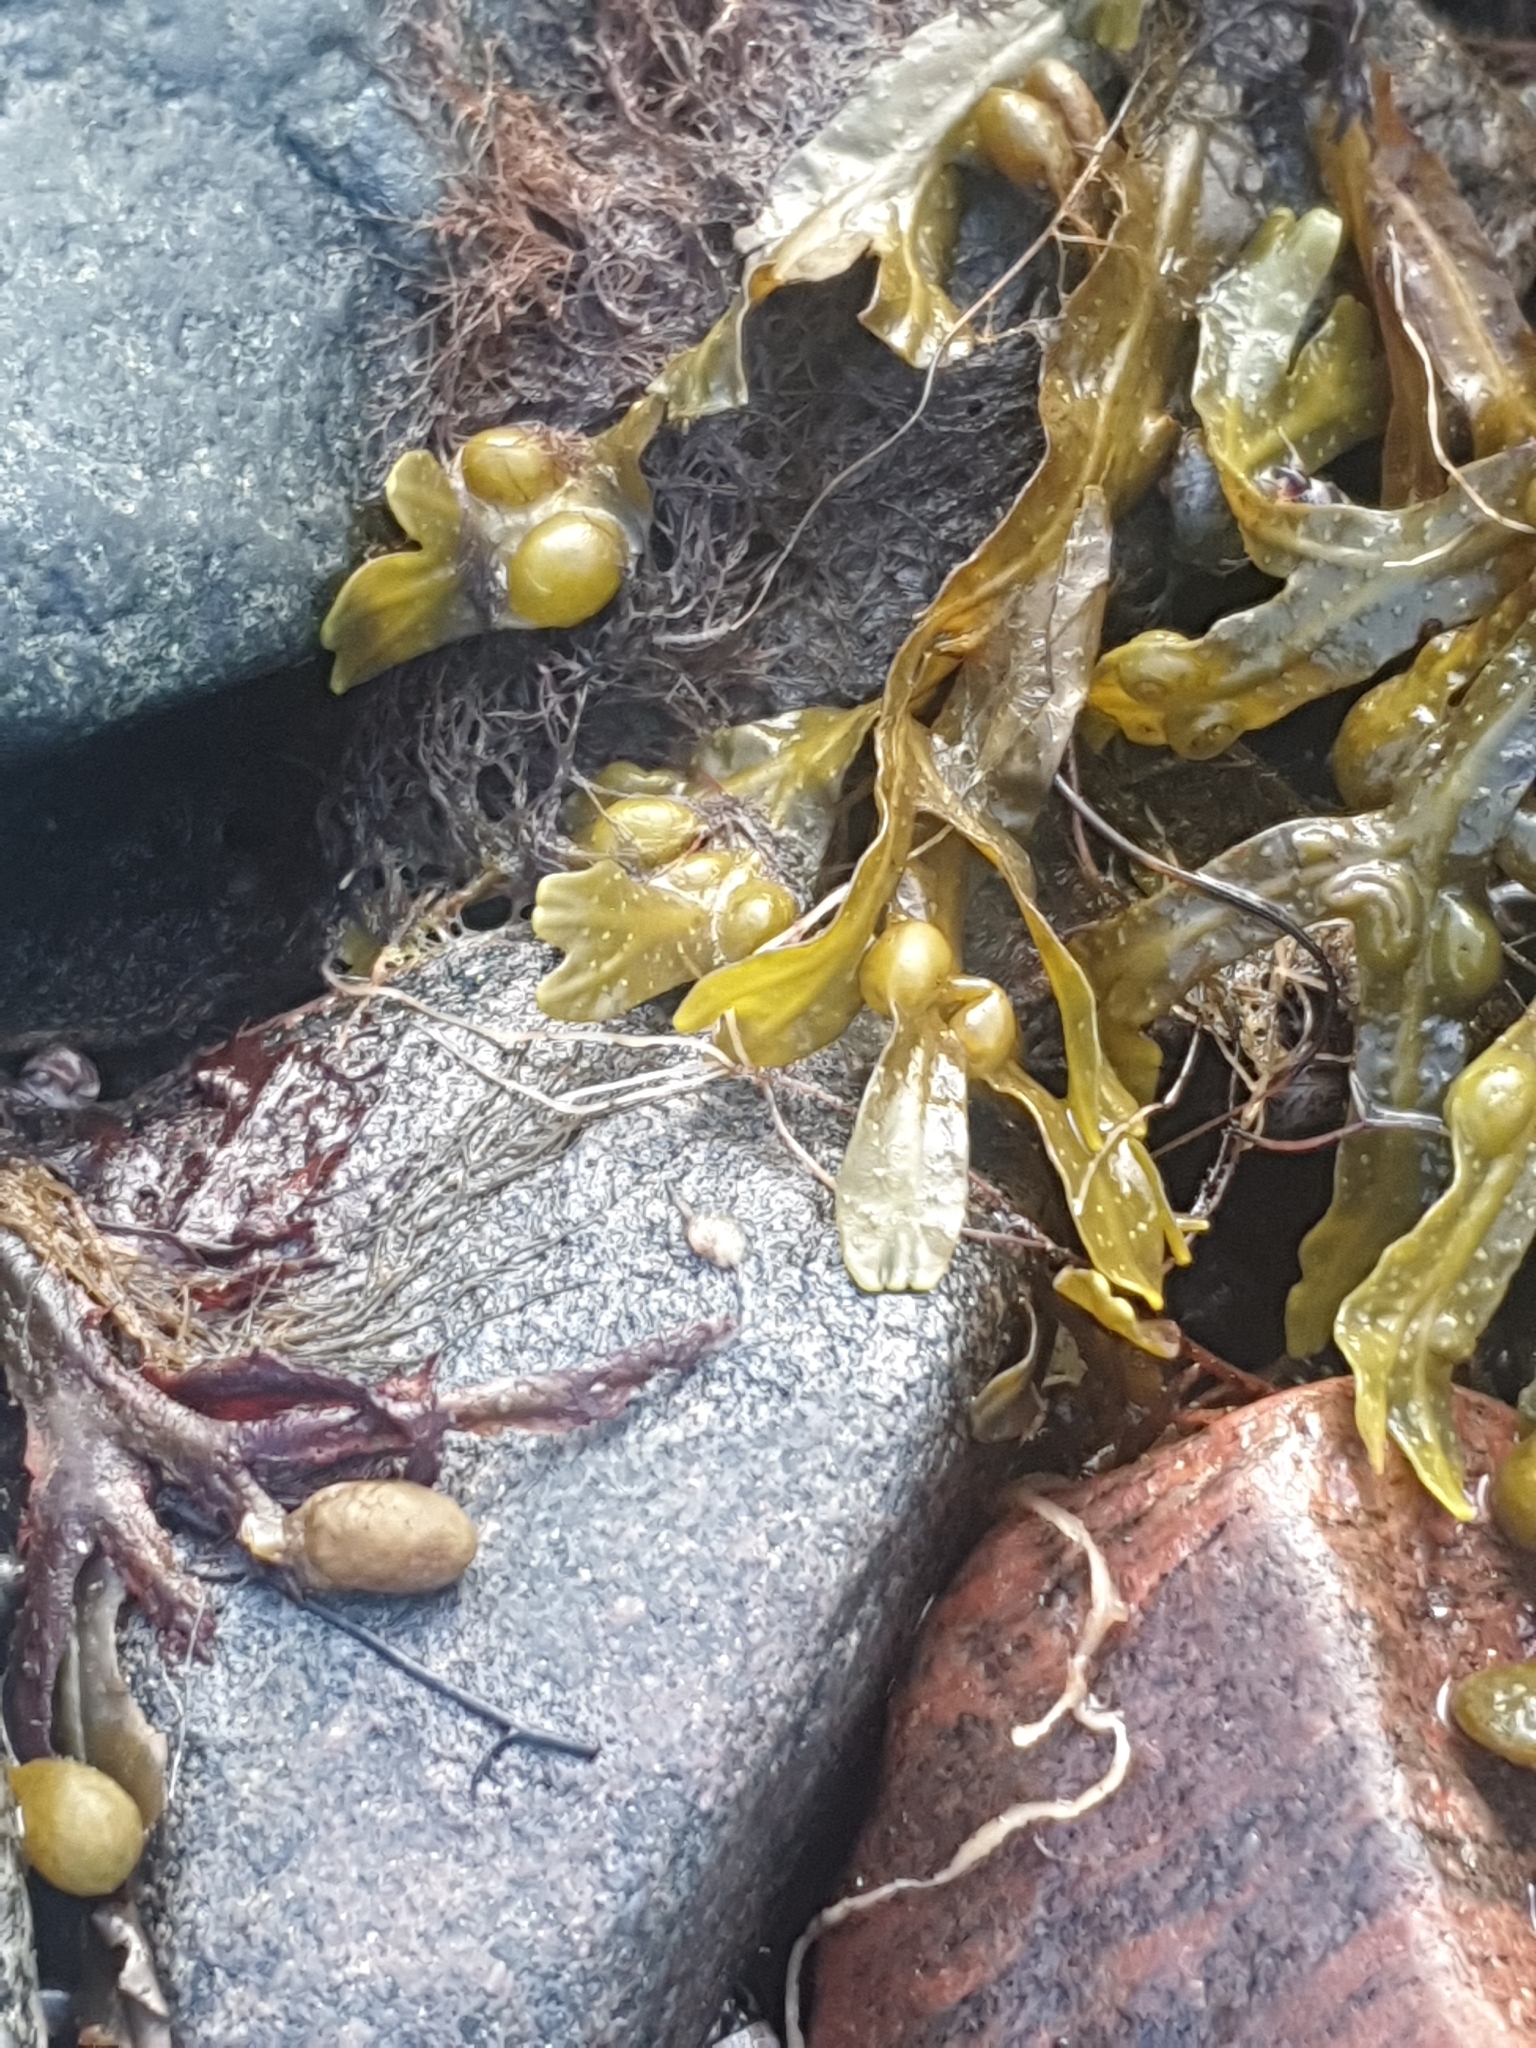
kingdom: Chromista
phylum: Ochrophyta
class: Phaeophyceae
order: Fucales
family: Fucaceae
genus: Fucus
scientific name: Fucus vesiculosus
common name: Bladder wrack
